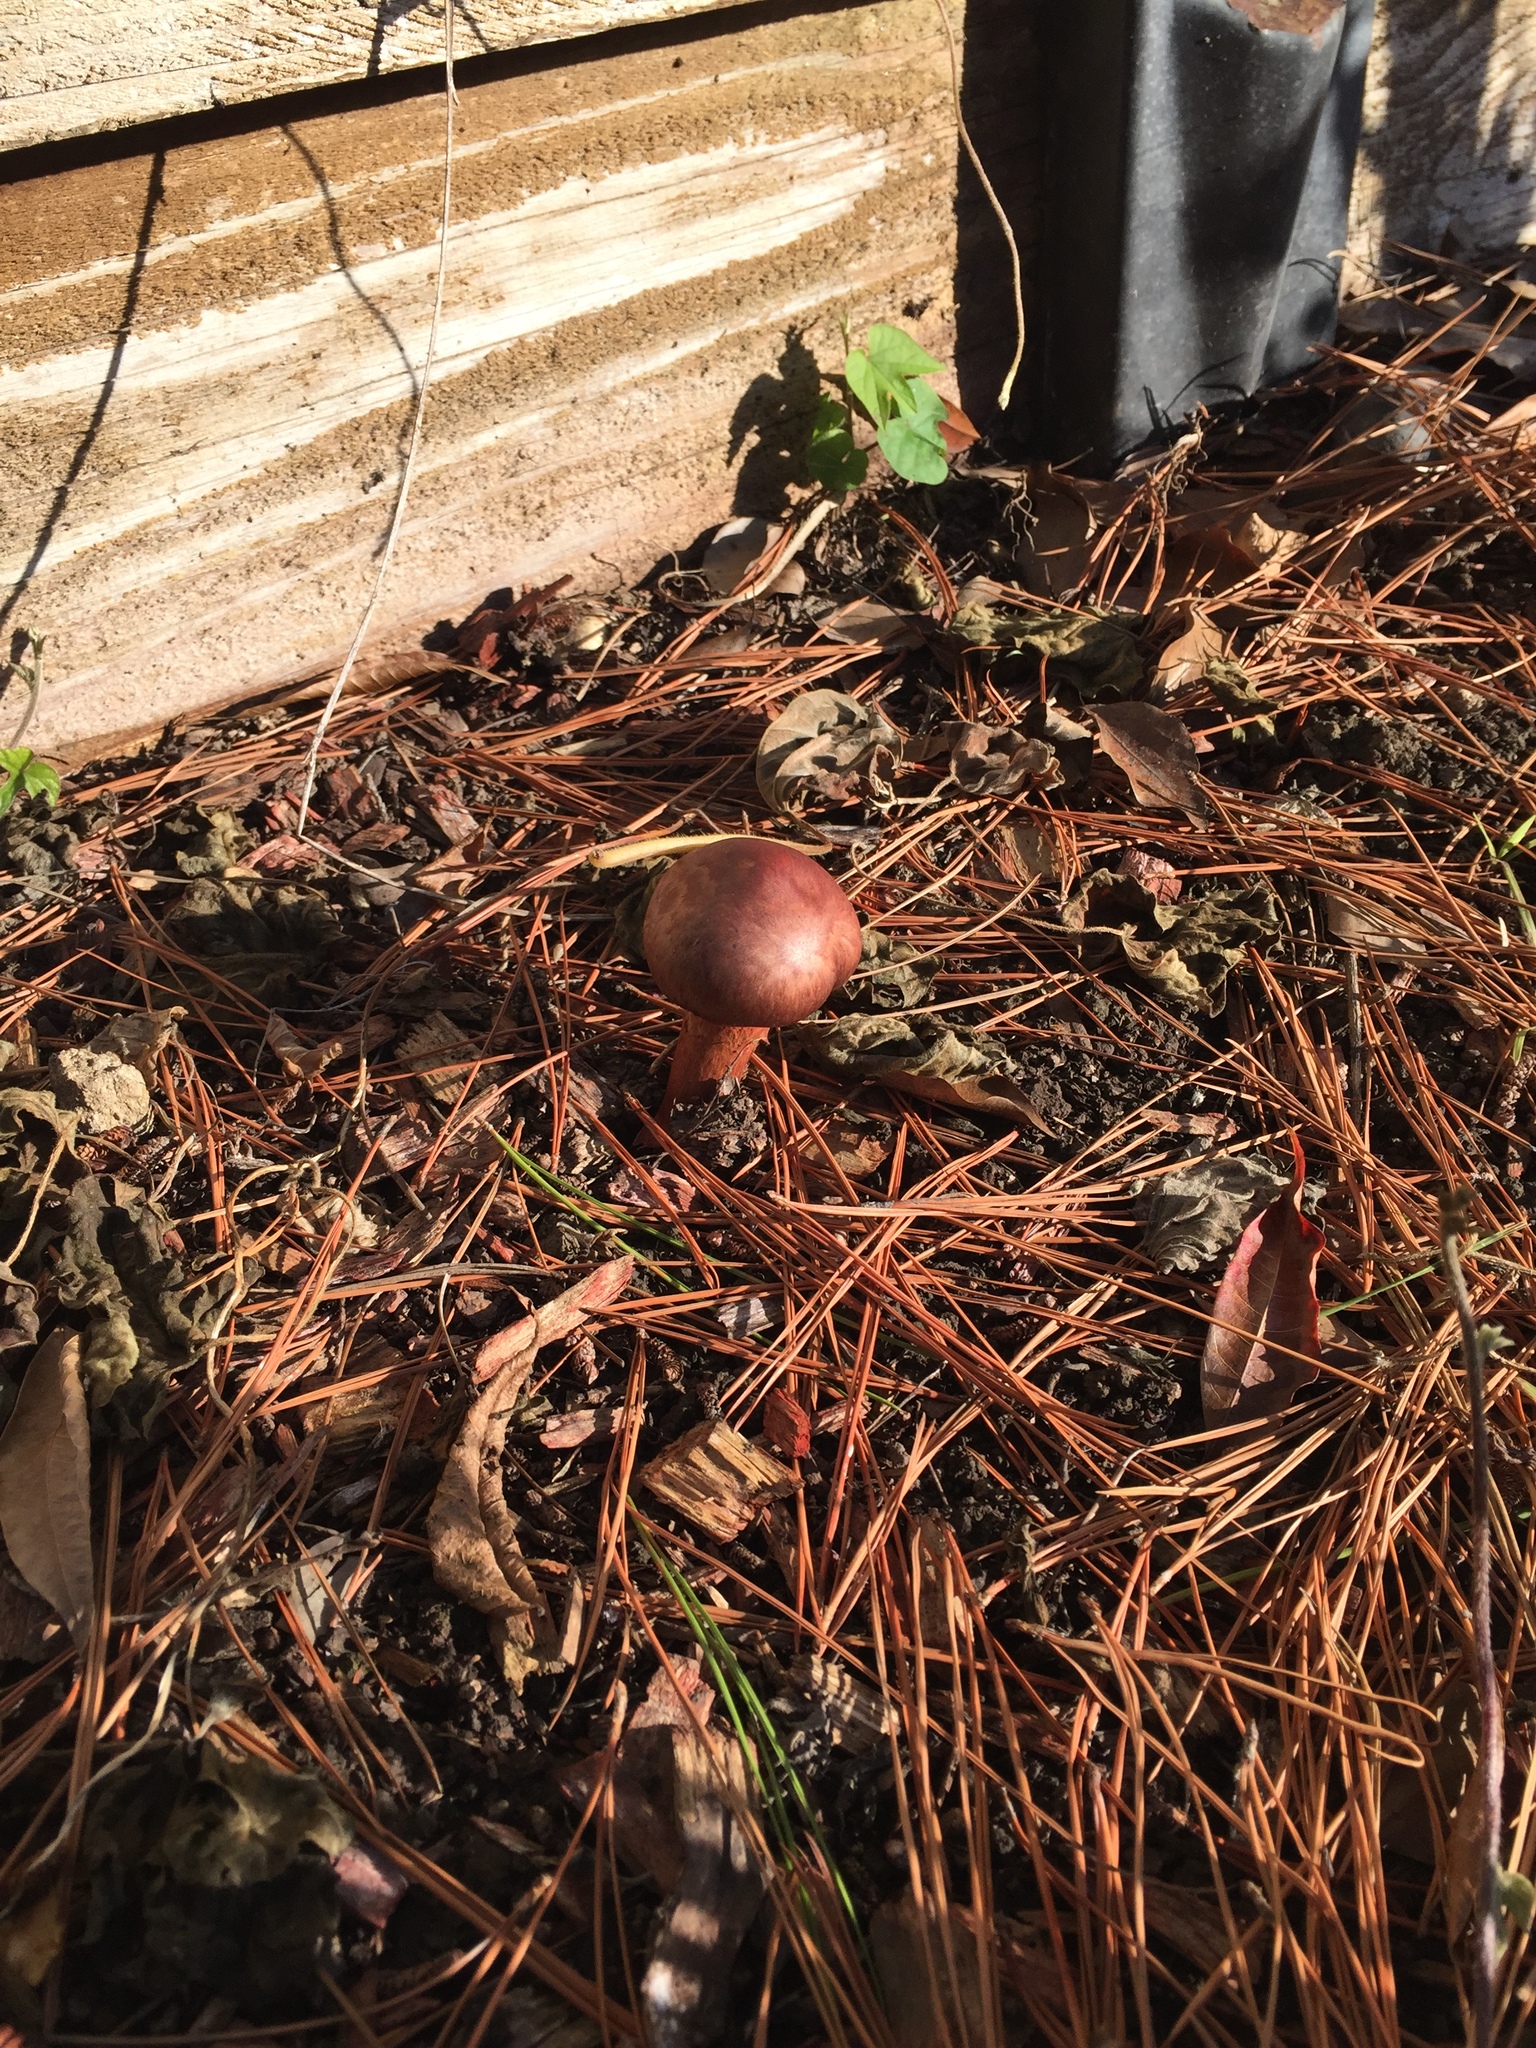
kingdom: Fungi
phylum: Basidiomycota
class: Agaricomycetes
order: Boletales
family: Gomphidiaceae
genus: Chroogomphus
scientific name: Chroogomphus vinicolor
